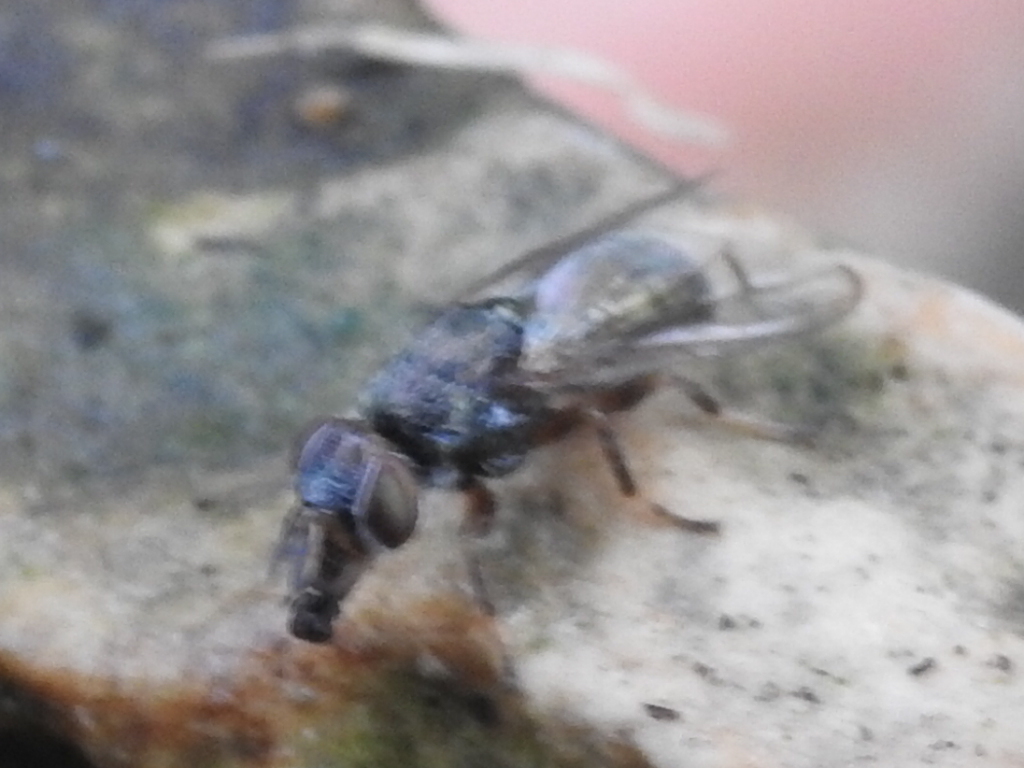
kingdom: Animalia
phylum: Arthropoda
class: Insecta
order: Diptera
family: Platystomatidae
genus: Senopterina
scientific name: Senopterina foxleei
